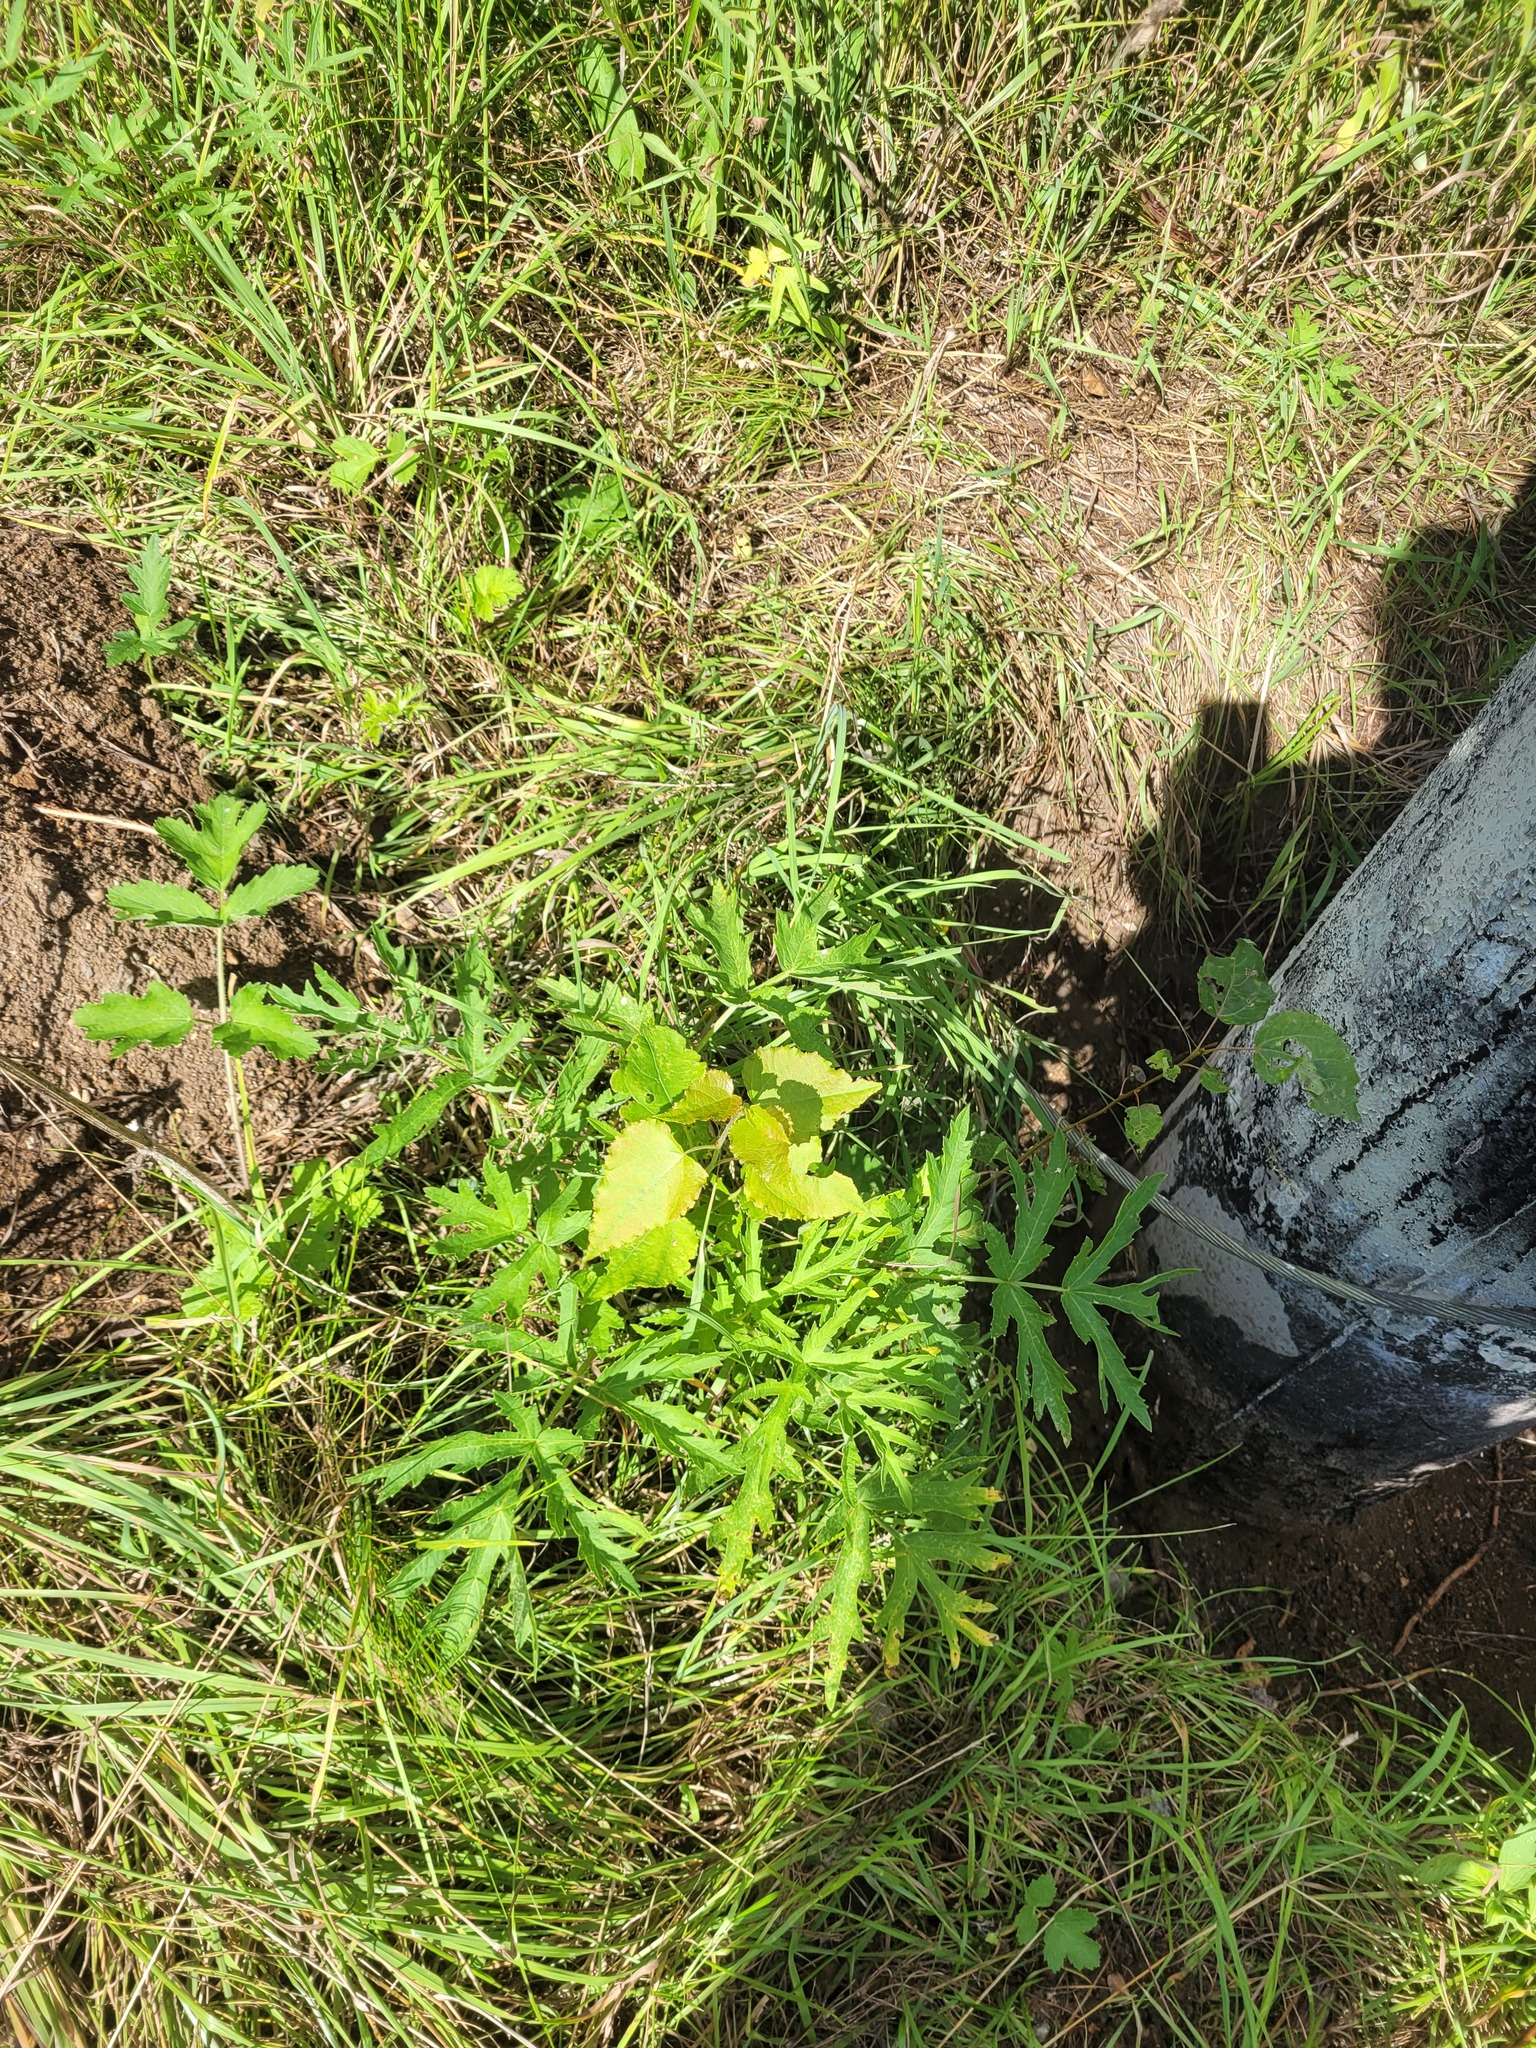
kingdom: Plantae
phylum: Tracheophyta
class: Magnoliopsida
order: Malpighiales
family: Salicaceae
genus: Populus
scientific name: Populus tremula
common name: European aspen
